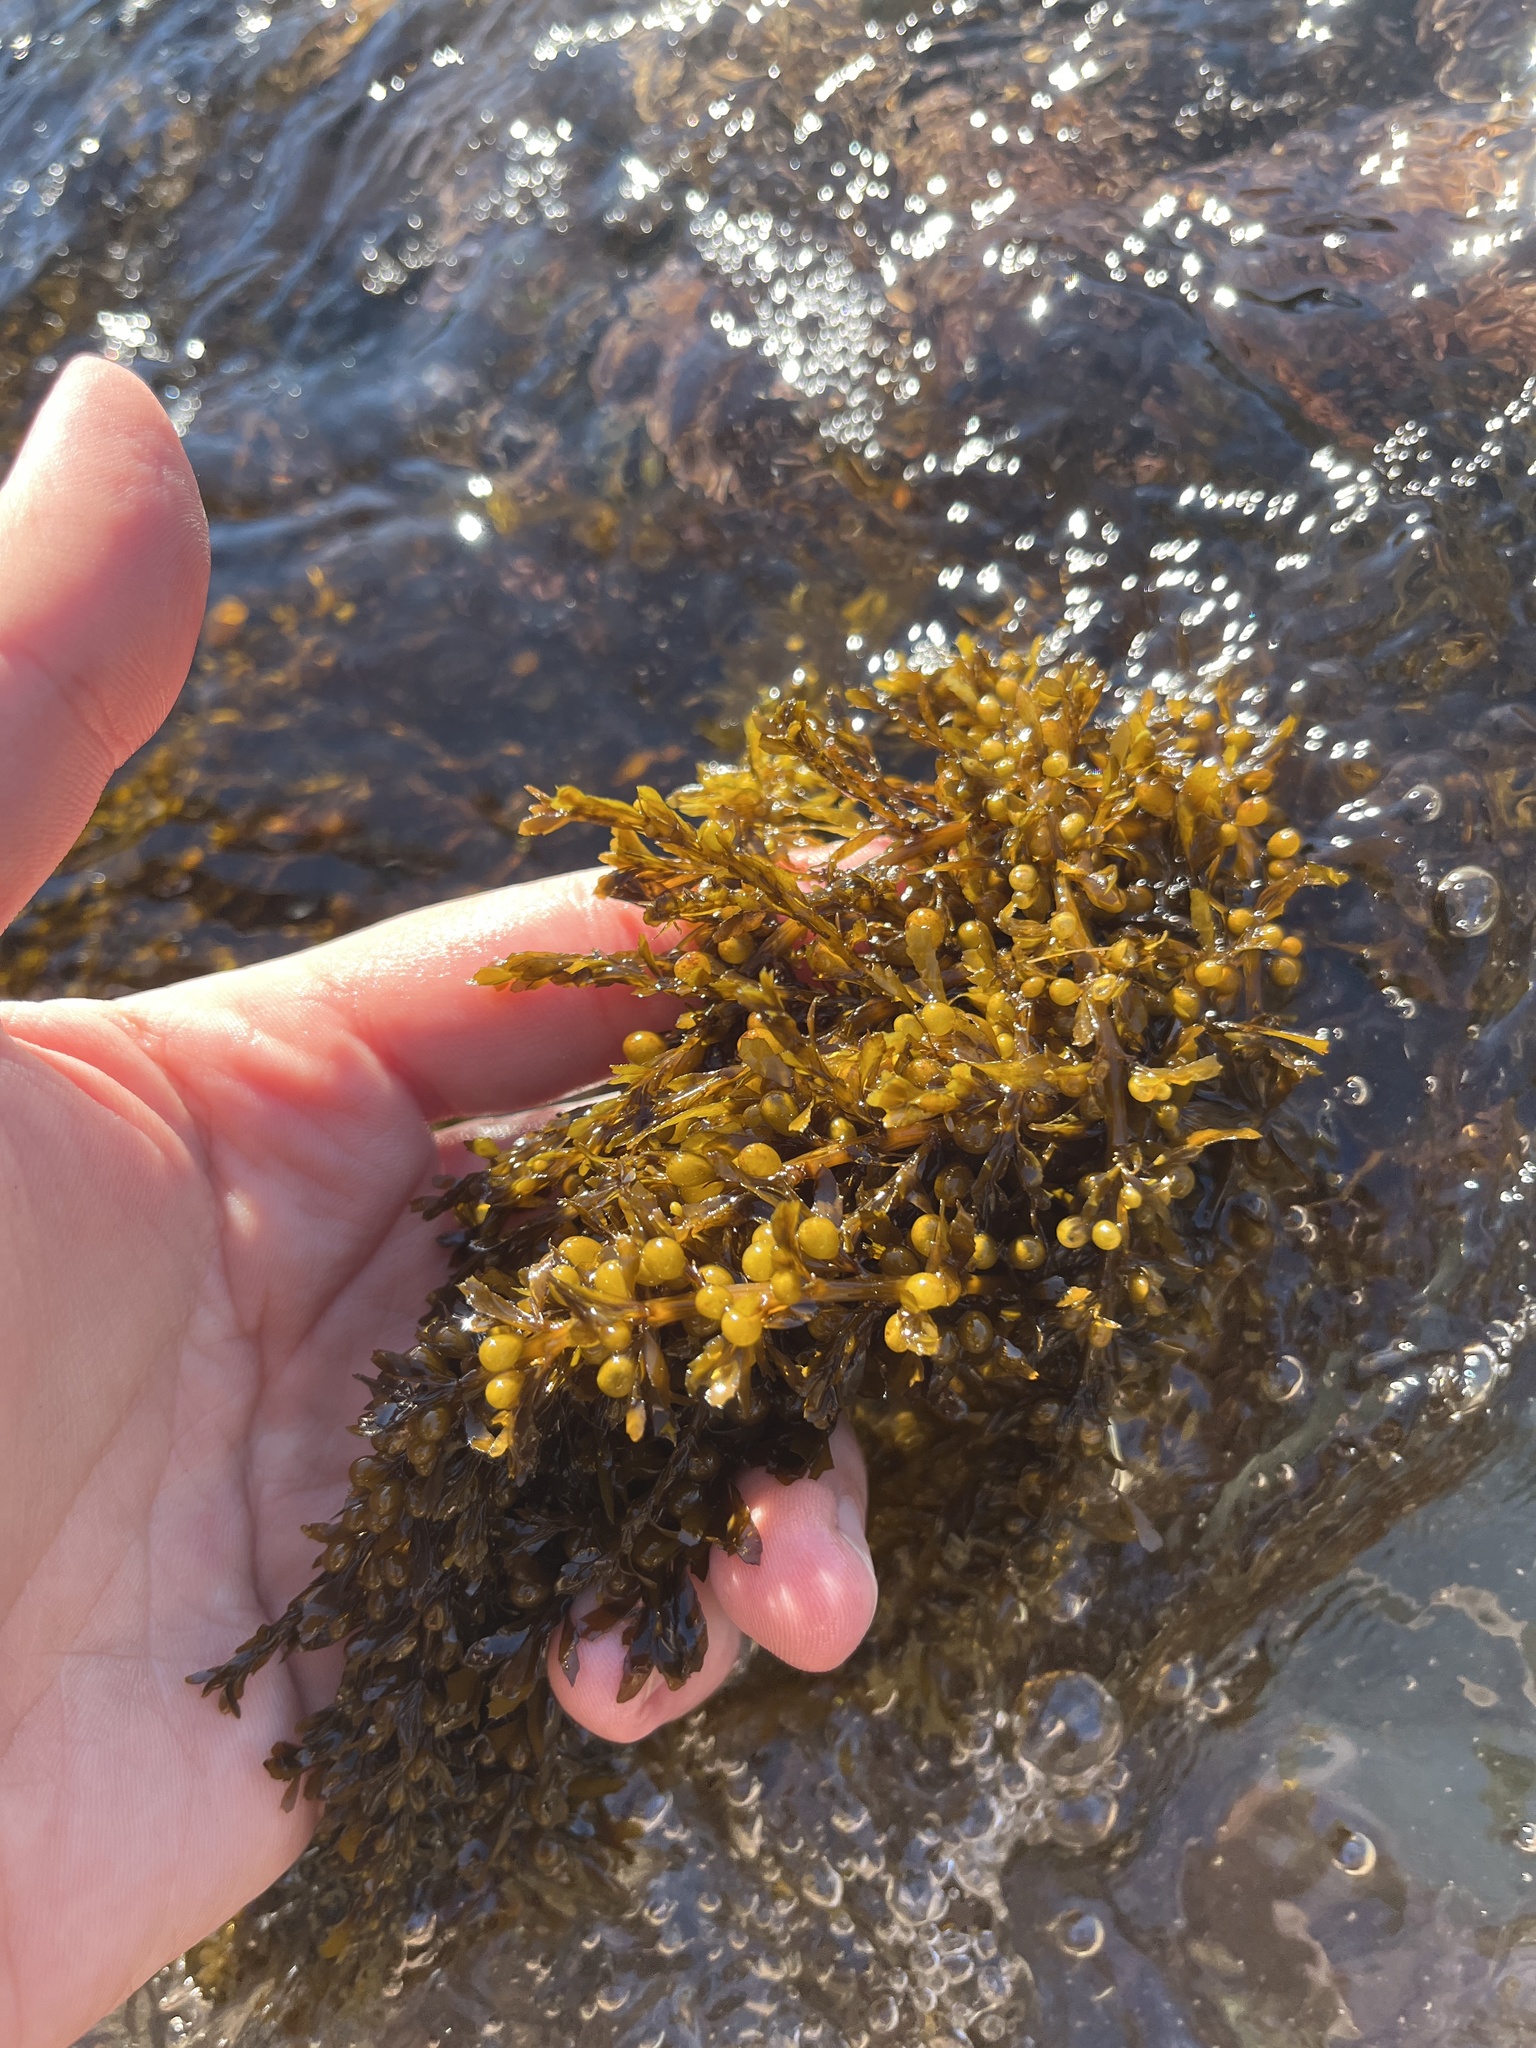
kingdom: Chromista
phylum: Ochrophyta
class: Phaeophyceae
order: Fucales
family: Sargassaceae
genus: Sargassum
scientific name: Sargassum muticum
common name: Japweed
